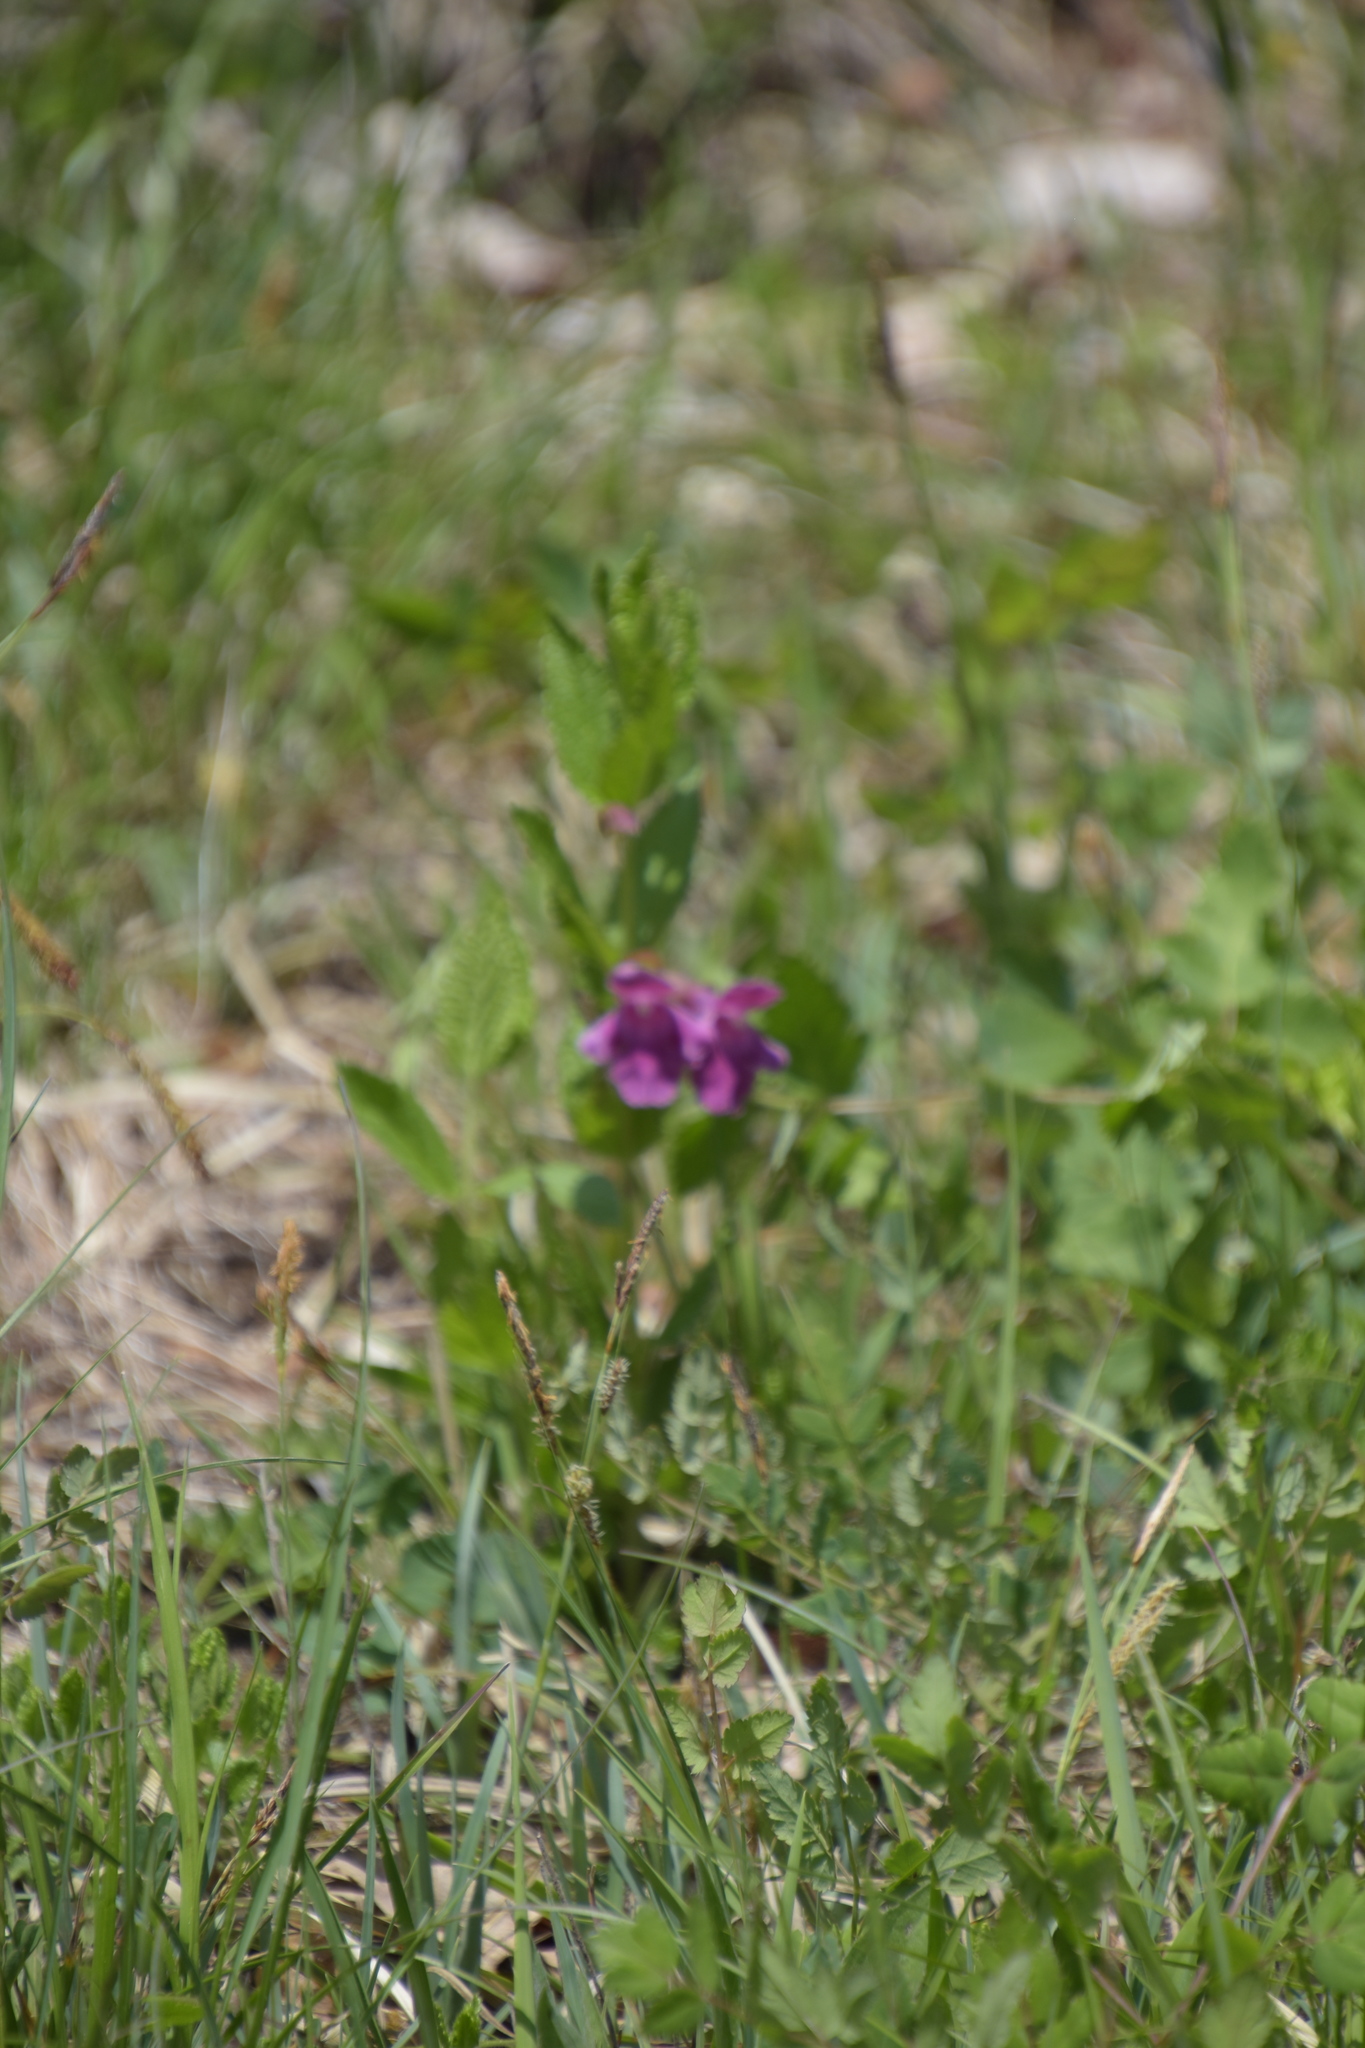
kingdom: Plantae
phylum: Tracheophyta
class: Magnoliopsida
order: Lamiales
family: Lamiaceae
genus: Melittis
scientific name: Melittis melissophyllum
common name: Bastard balm
